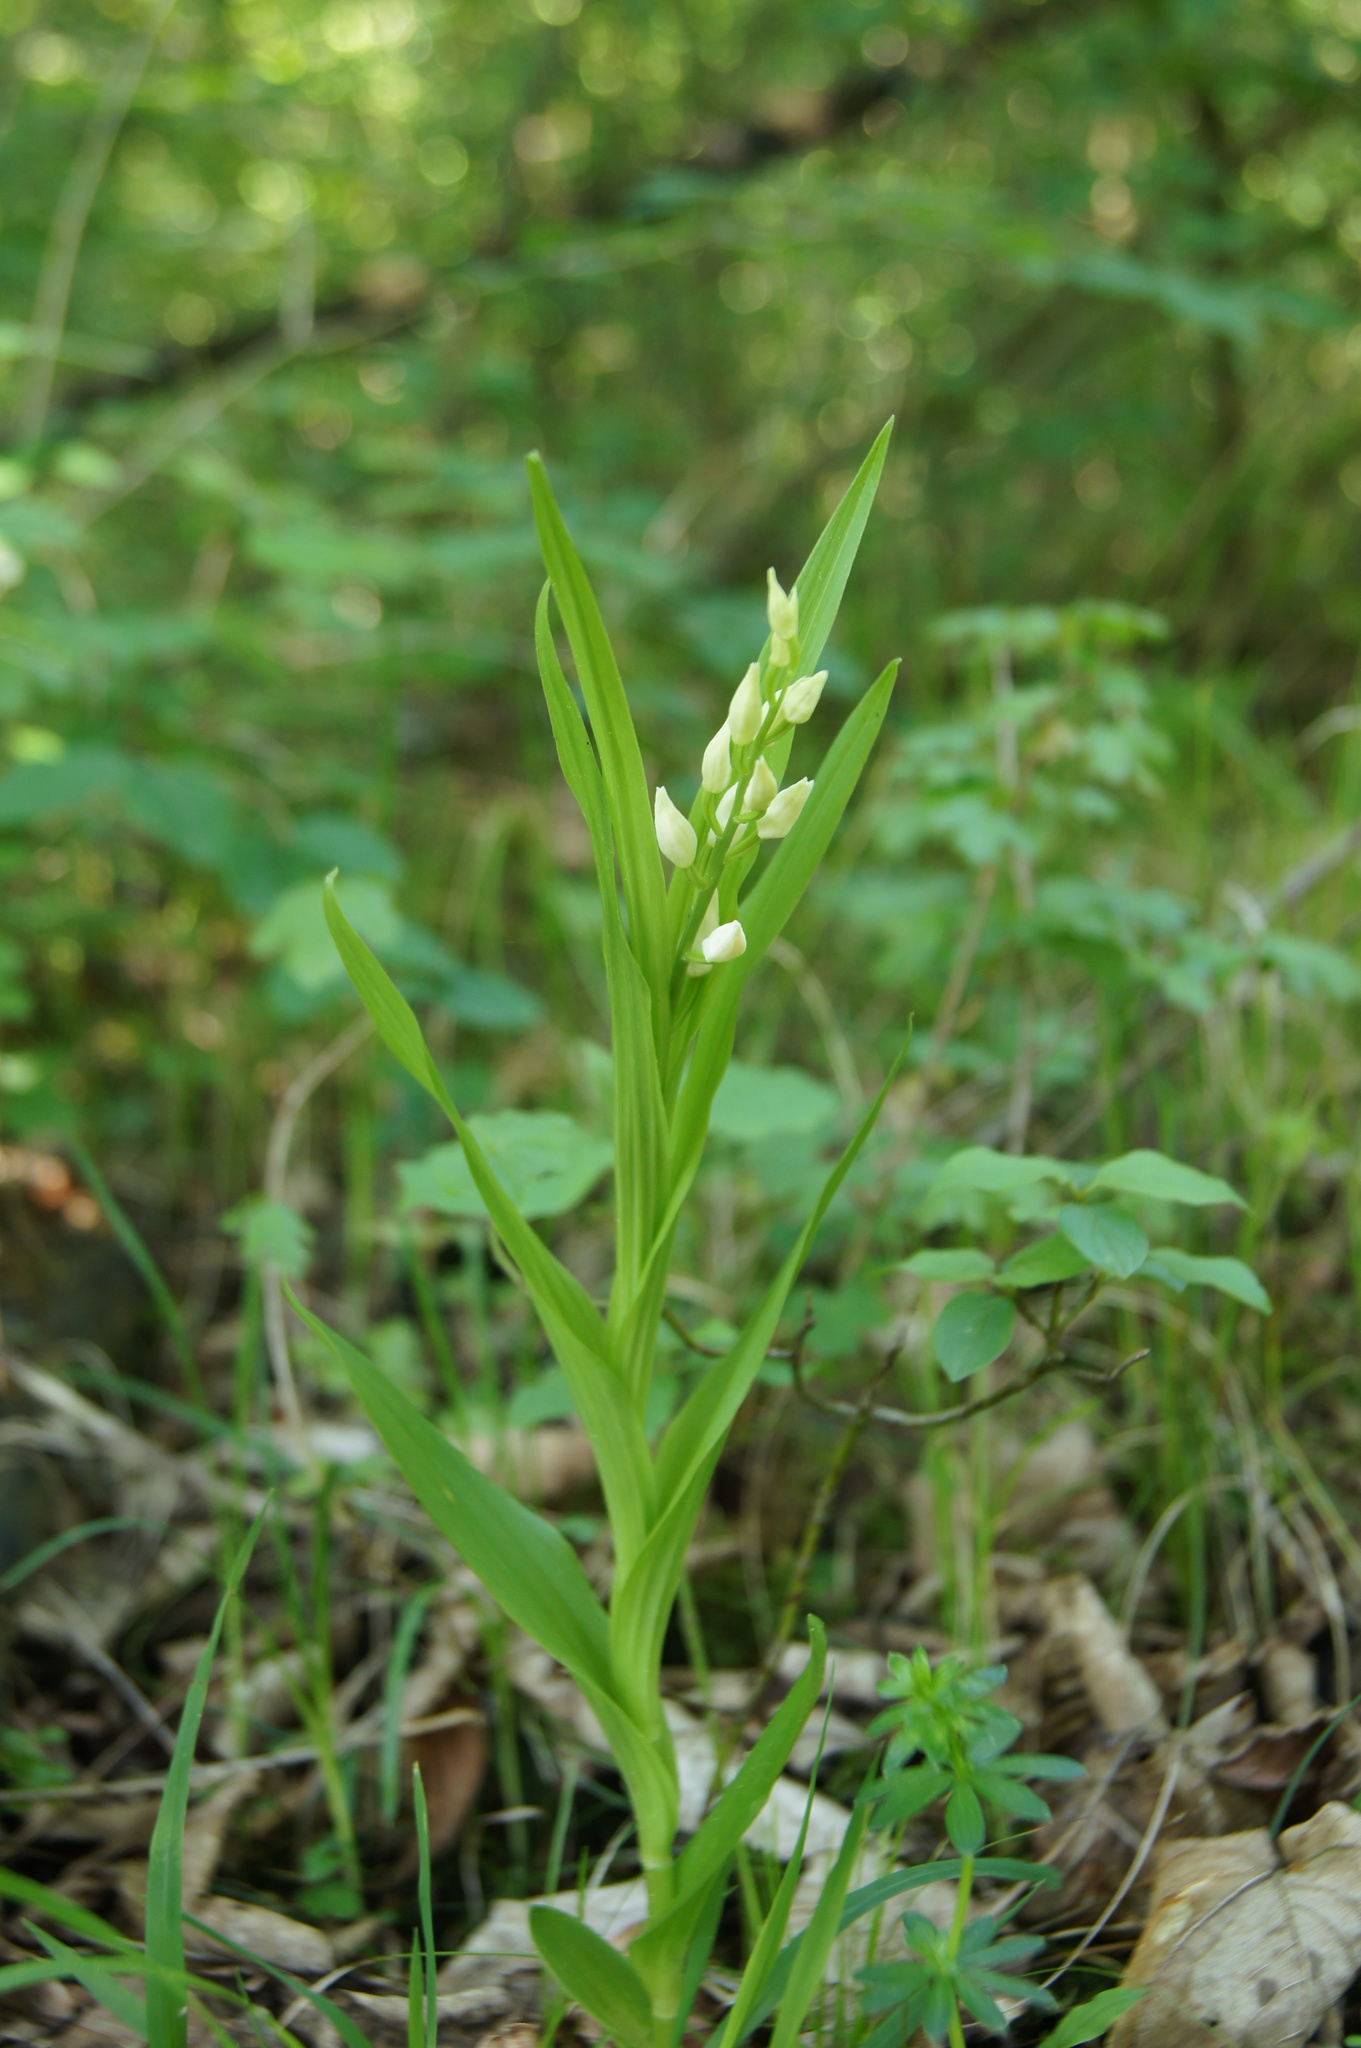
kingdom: Plantae
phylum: Tracheophyta
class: Liliopsida
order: Asparagales
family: Orchidaceae
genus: Cephalanthera
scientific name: Cephalanthera longifolia
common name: Narrow-leaved helleborine
